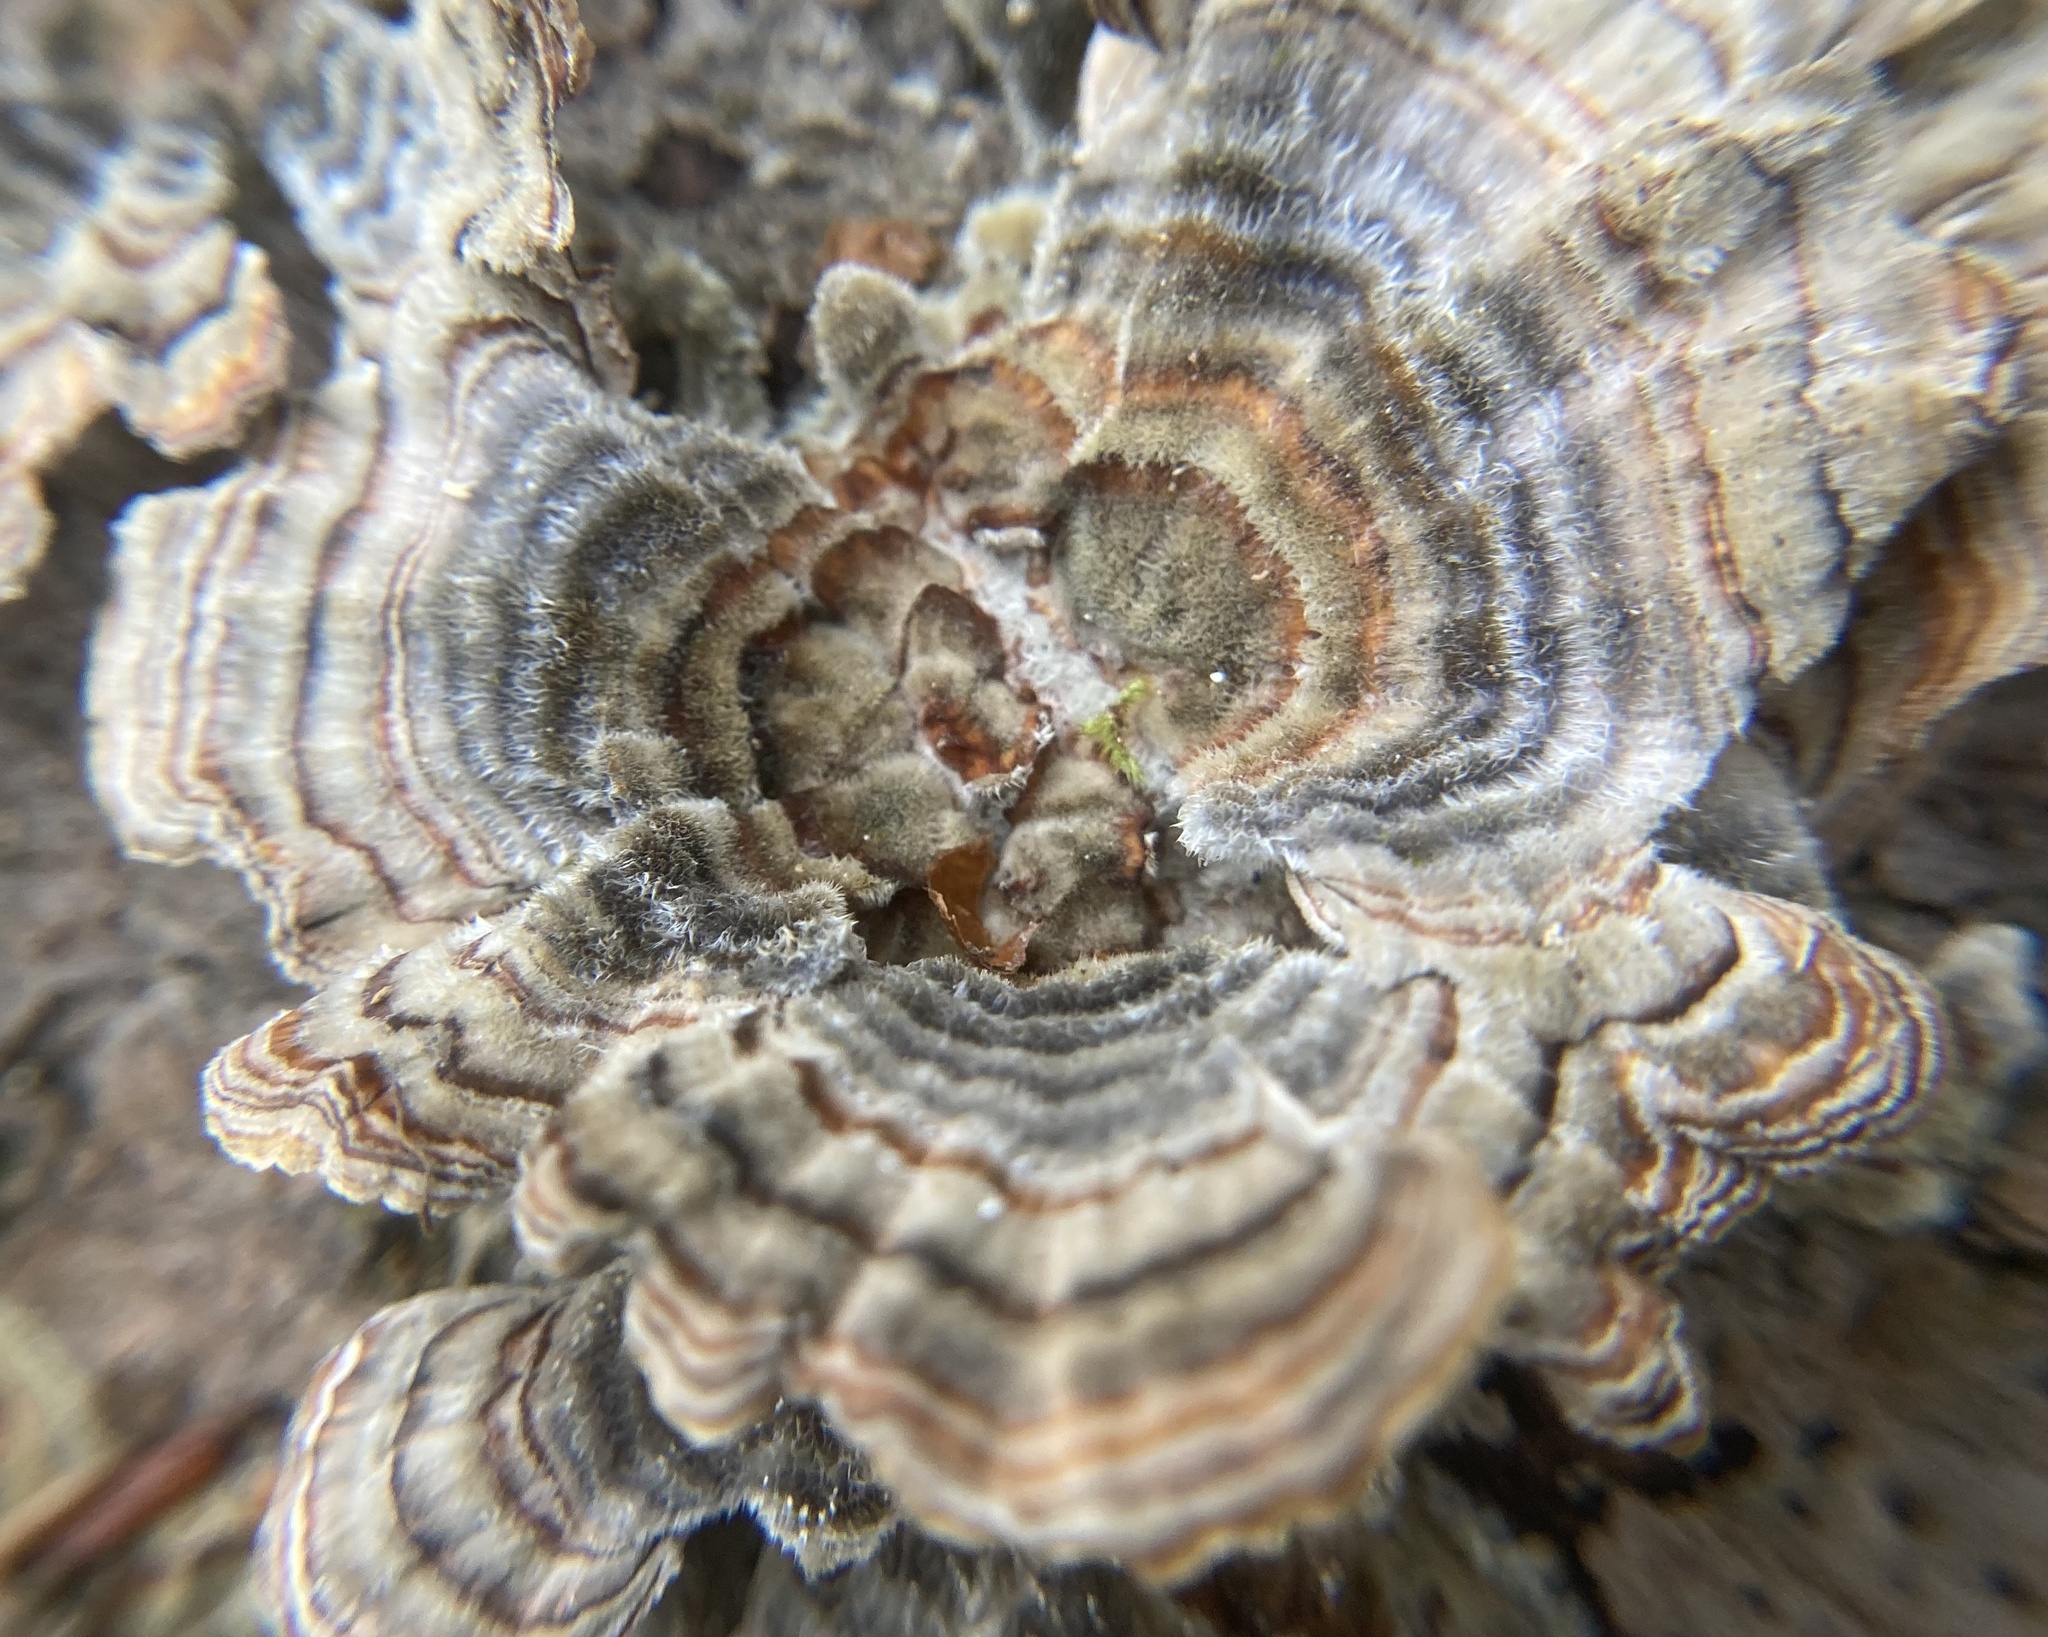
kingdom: Fungi
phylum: Basidiomycota
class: Agaricomycetes
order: Polyporales
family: Polyporaceae
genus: Trametes
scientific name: Trametes versicolor
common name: Turkeytail
